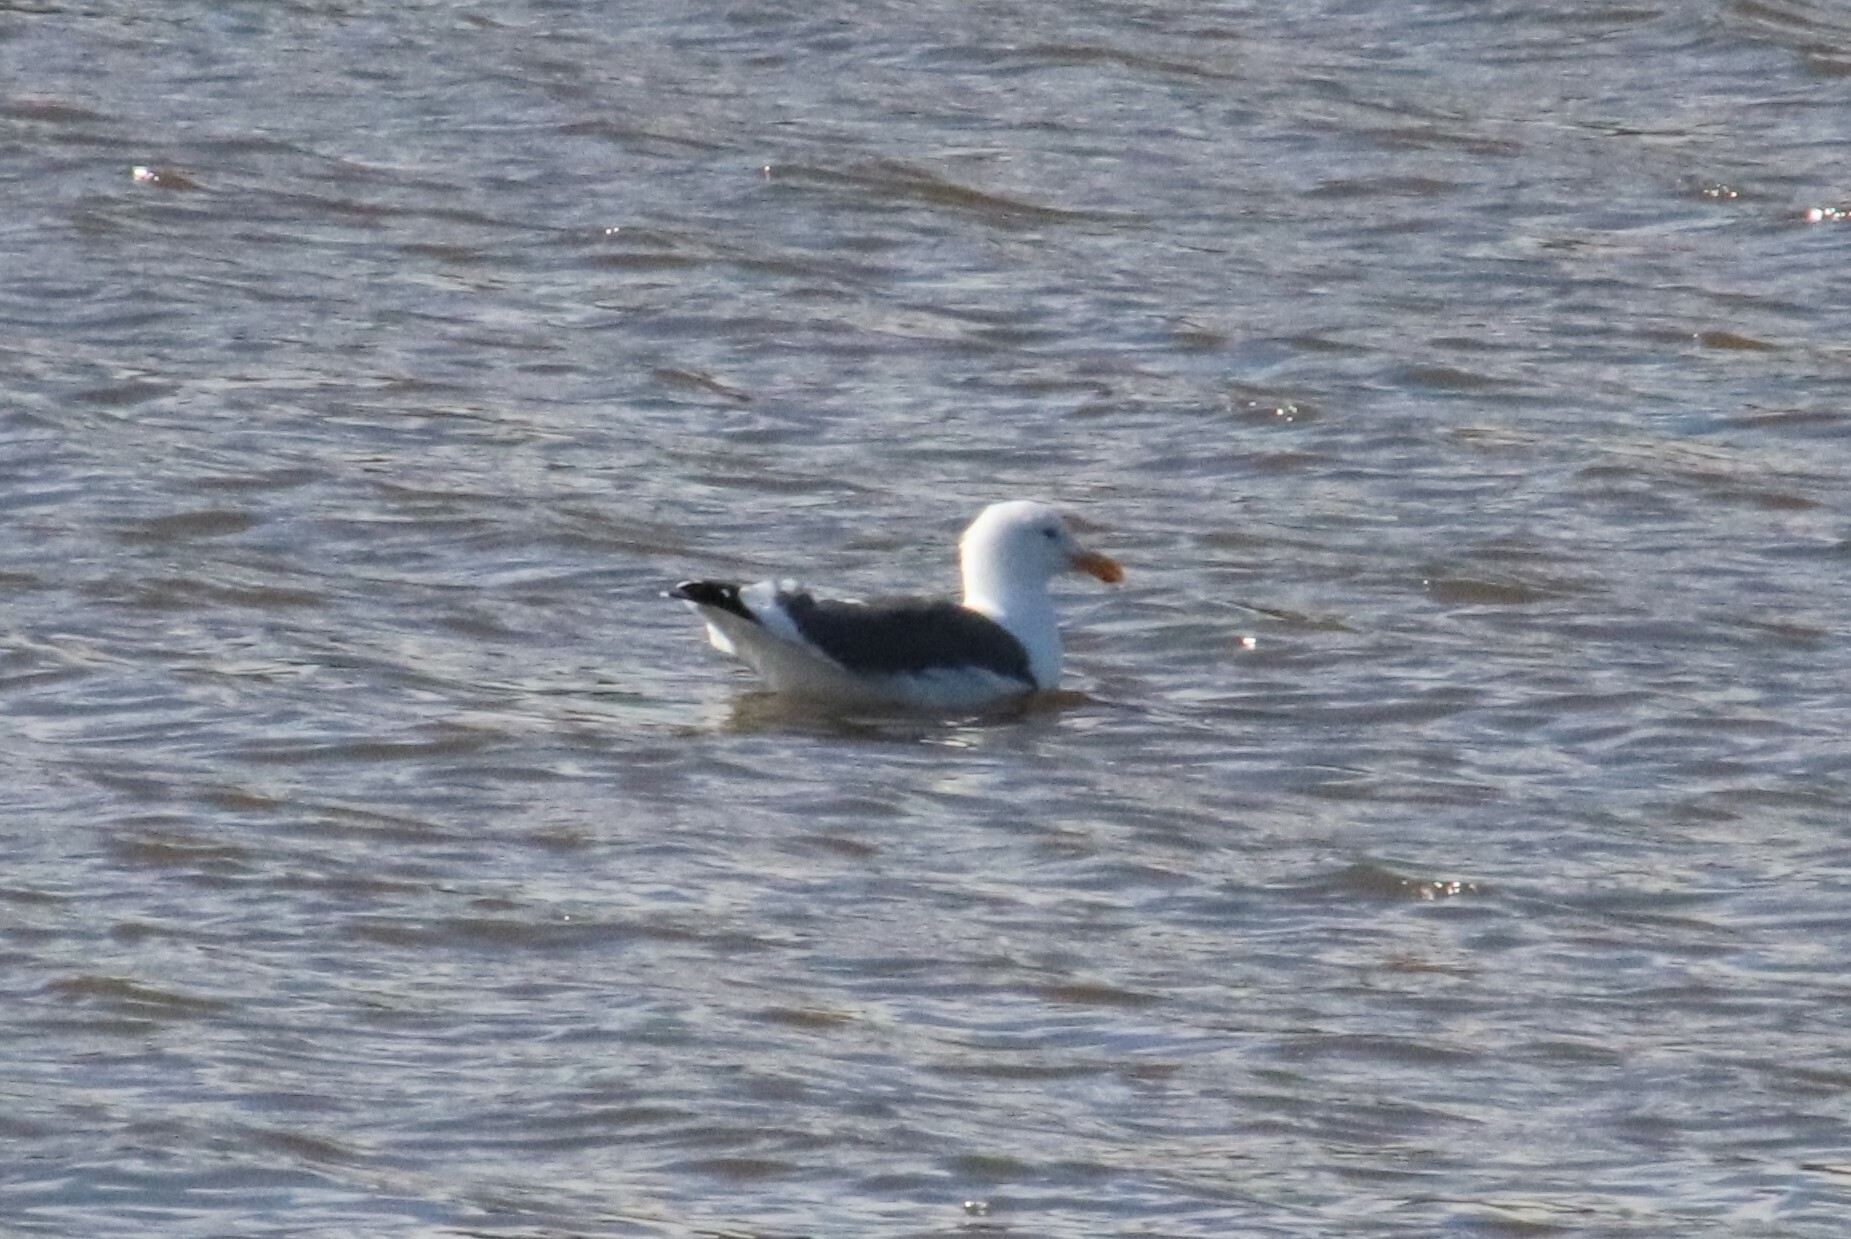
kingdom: Animalia
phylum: Chordata
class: Aves
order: Charadriiformes
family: Laridae
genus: Larus
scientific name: Larus occidentalis
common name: Western gull
